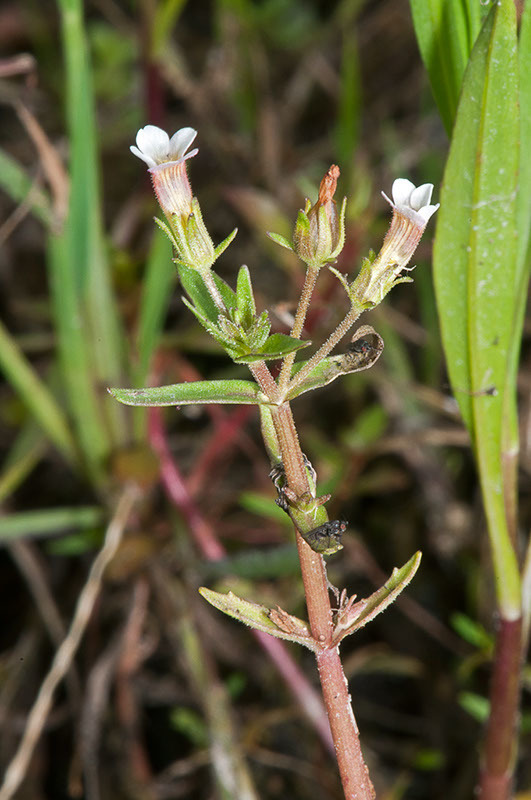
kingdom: Plantae
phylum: Tracheophyta
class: Magnoliopsida
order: Lamiales
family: Plantaginaceae
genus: Gratiola
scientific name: Gratiola pedunculata
